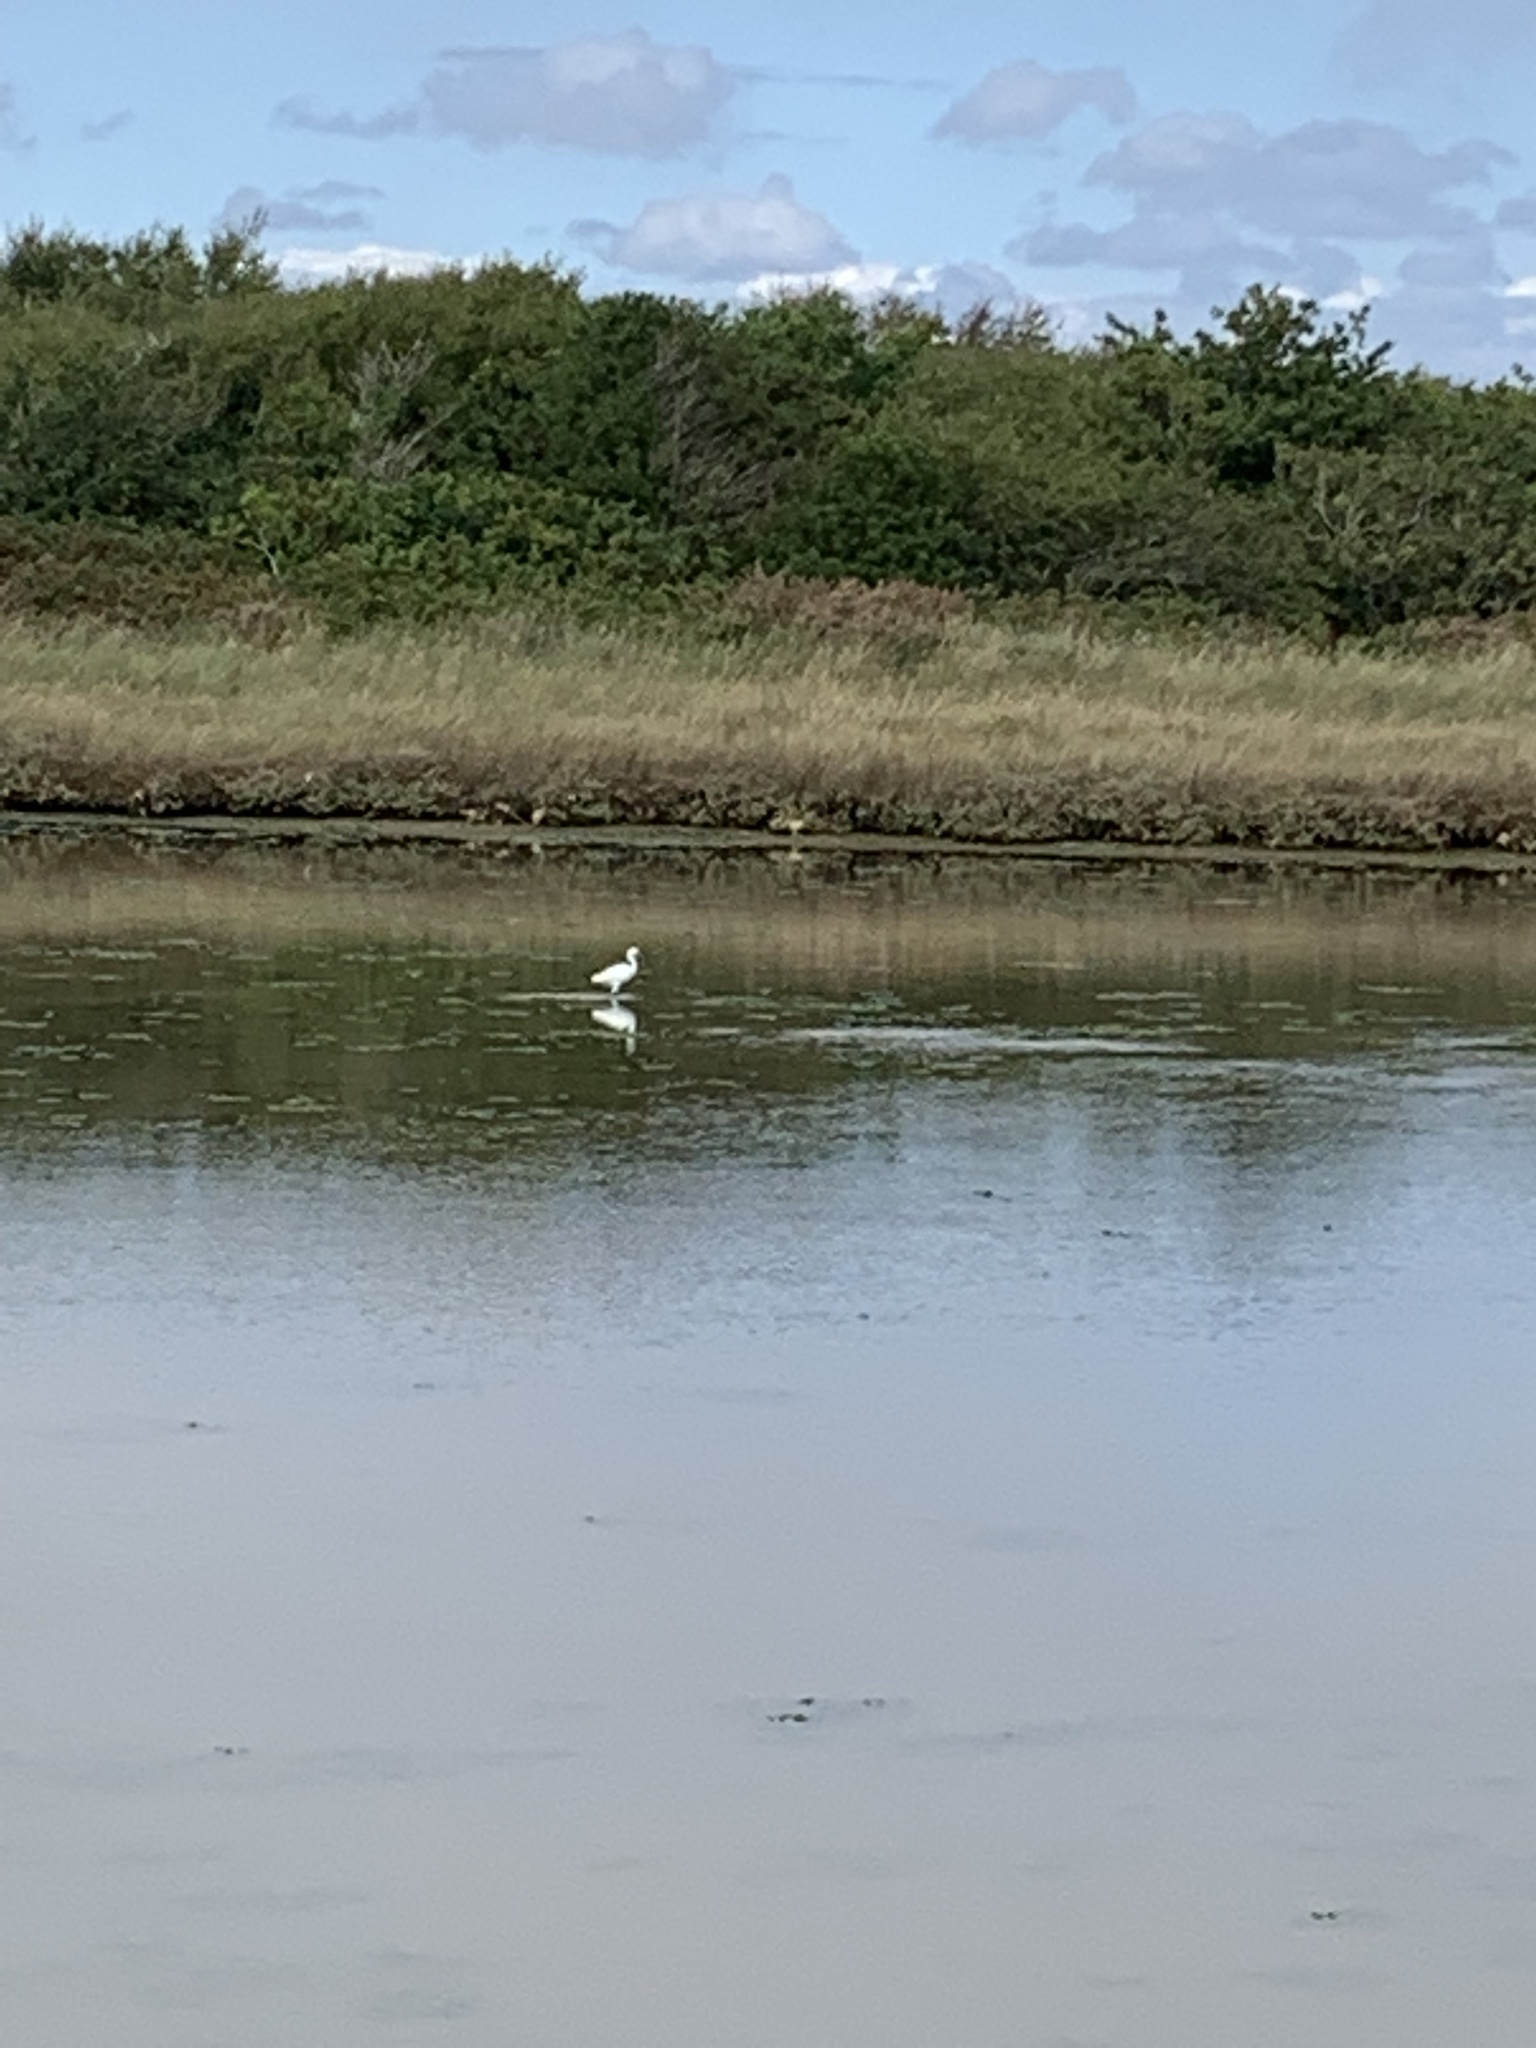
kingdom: Animalia
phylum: Chordata
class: Aves
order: Pelecaniformes
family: Ardeidae
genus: Egretta
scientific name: Egretta garzetta
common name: Little egret
